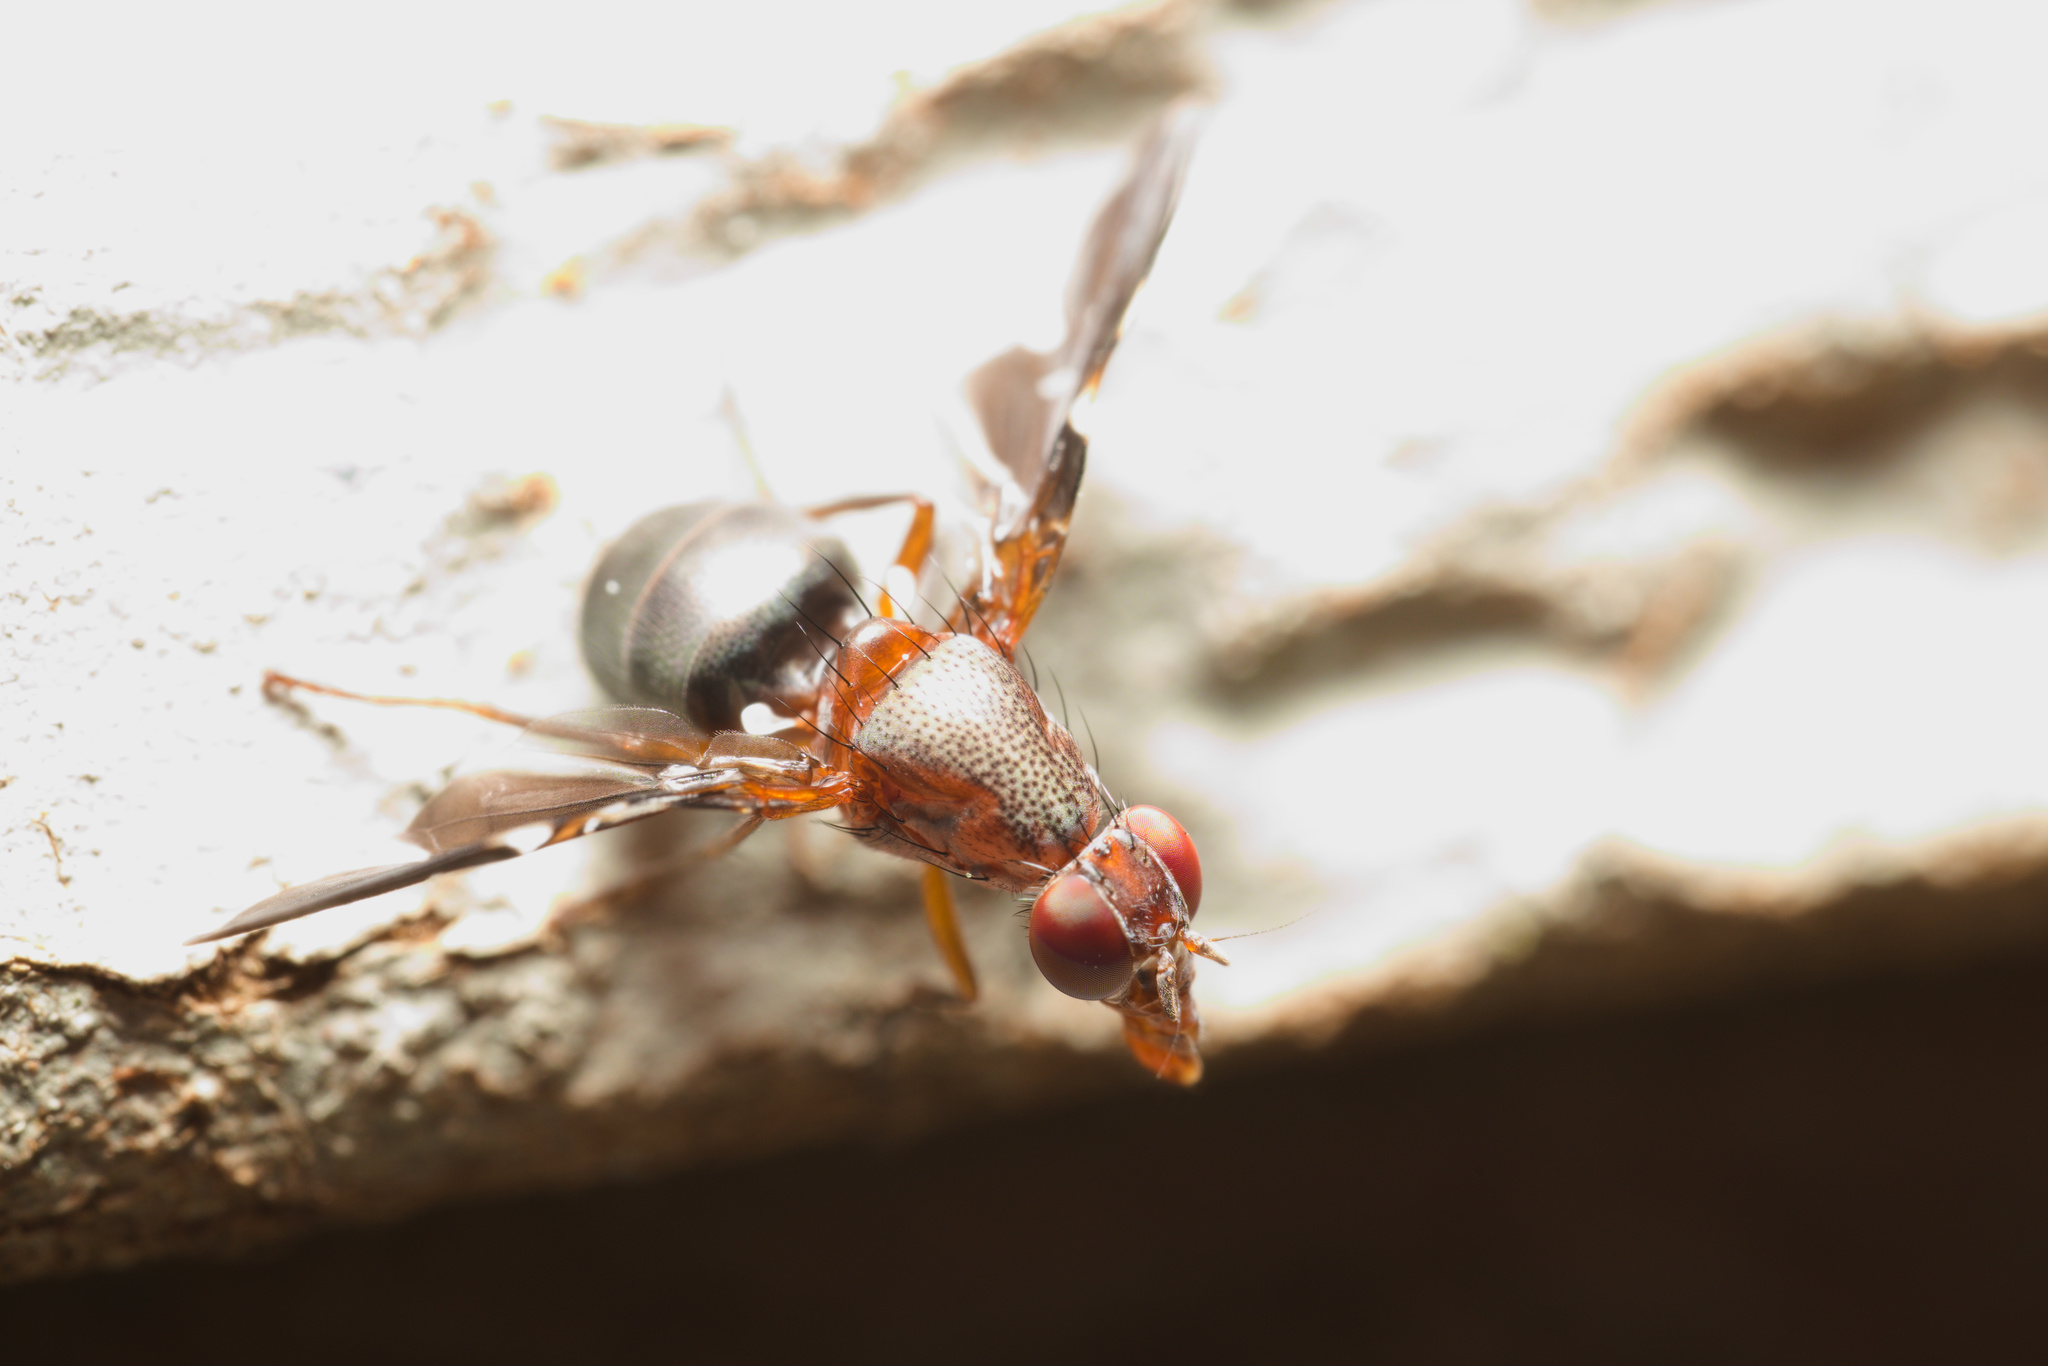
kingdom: Animalia
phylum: Arthropoda
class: Insecta
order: Diptera
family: Ulidiidae
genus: Delphinia
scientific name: Delphinia picta
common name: Common picture-winged fly
